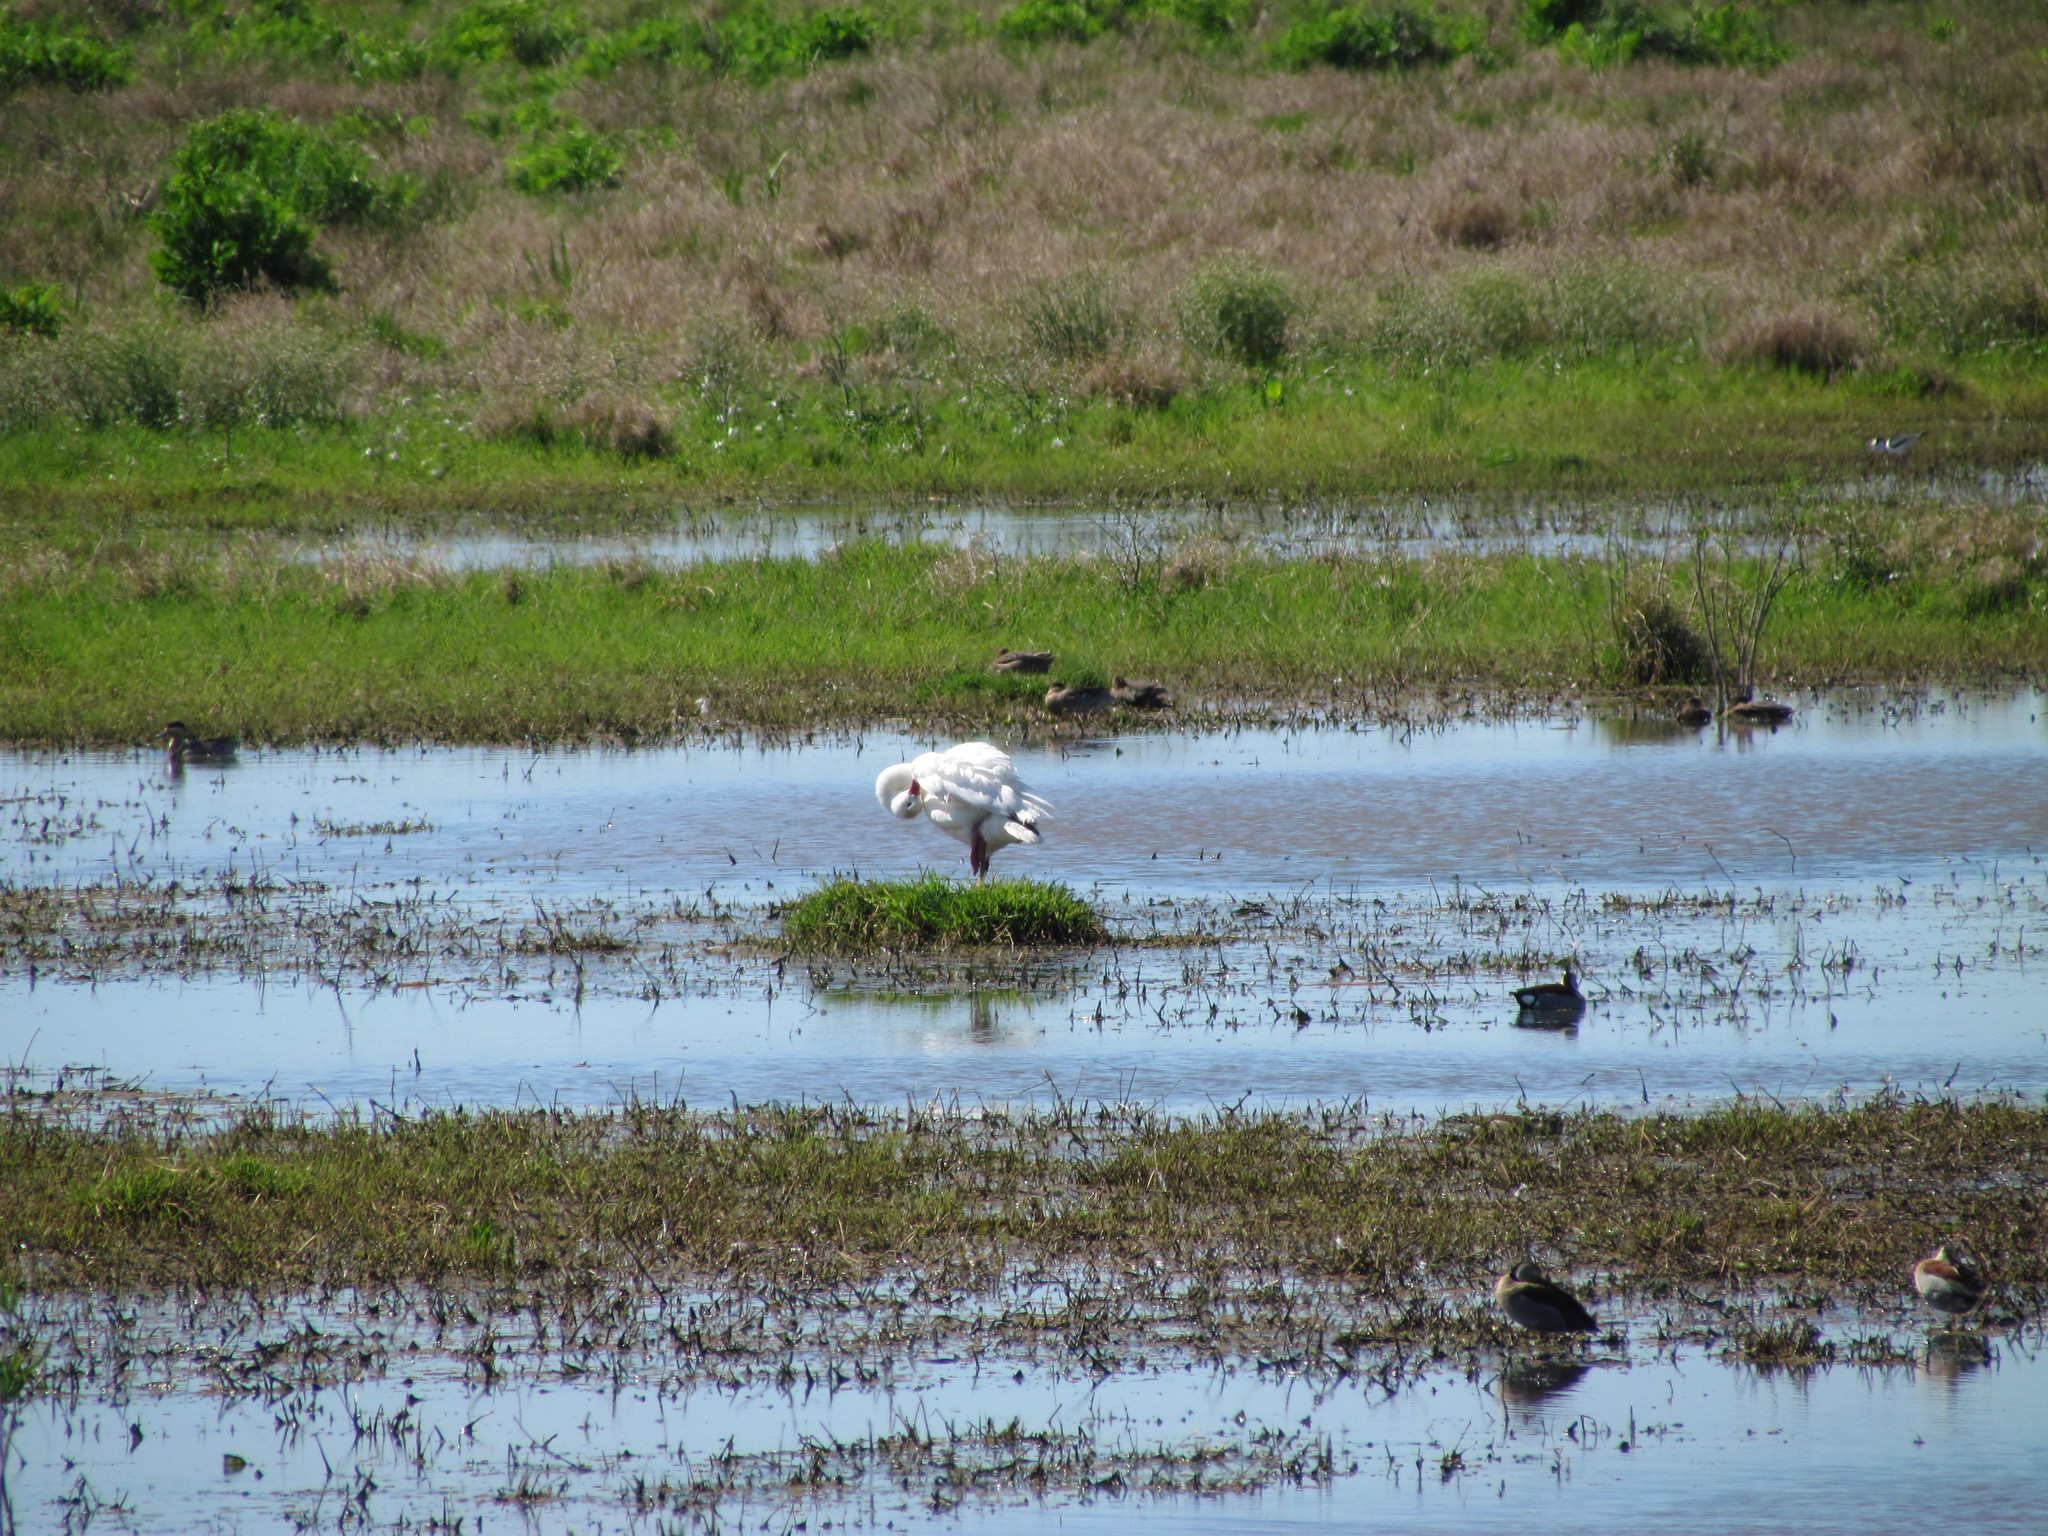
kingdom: Animalia
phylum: Chordata
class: Aves
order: Anseriformes
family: Anatidae
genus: Coscoroba
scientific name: Coscoroba coscoroba
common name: Coscoroba swan
